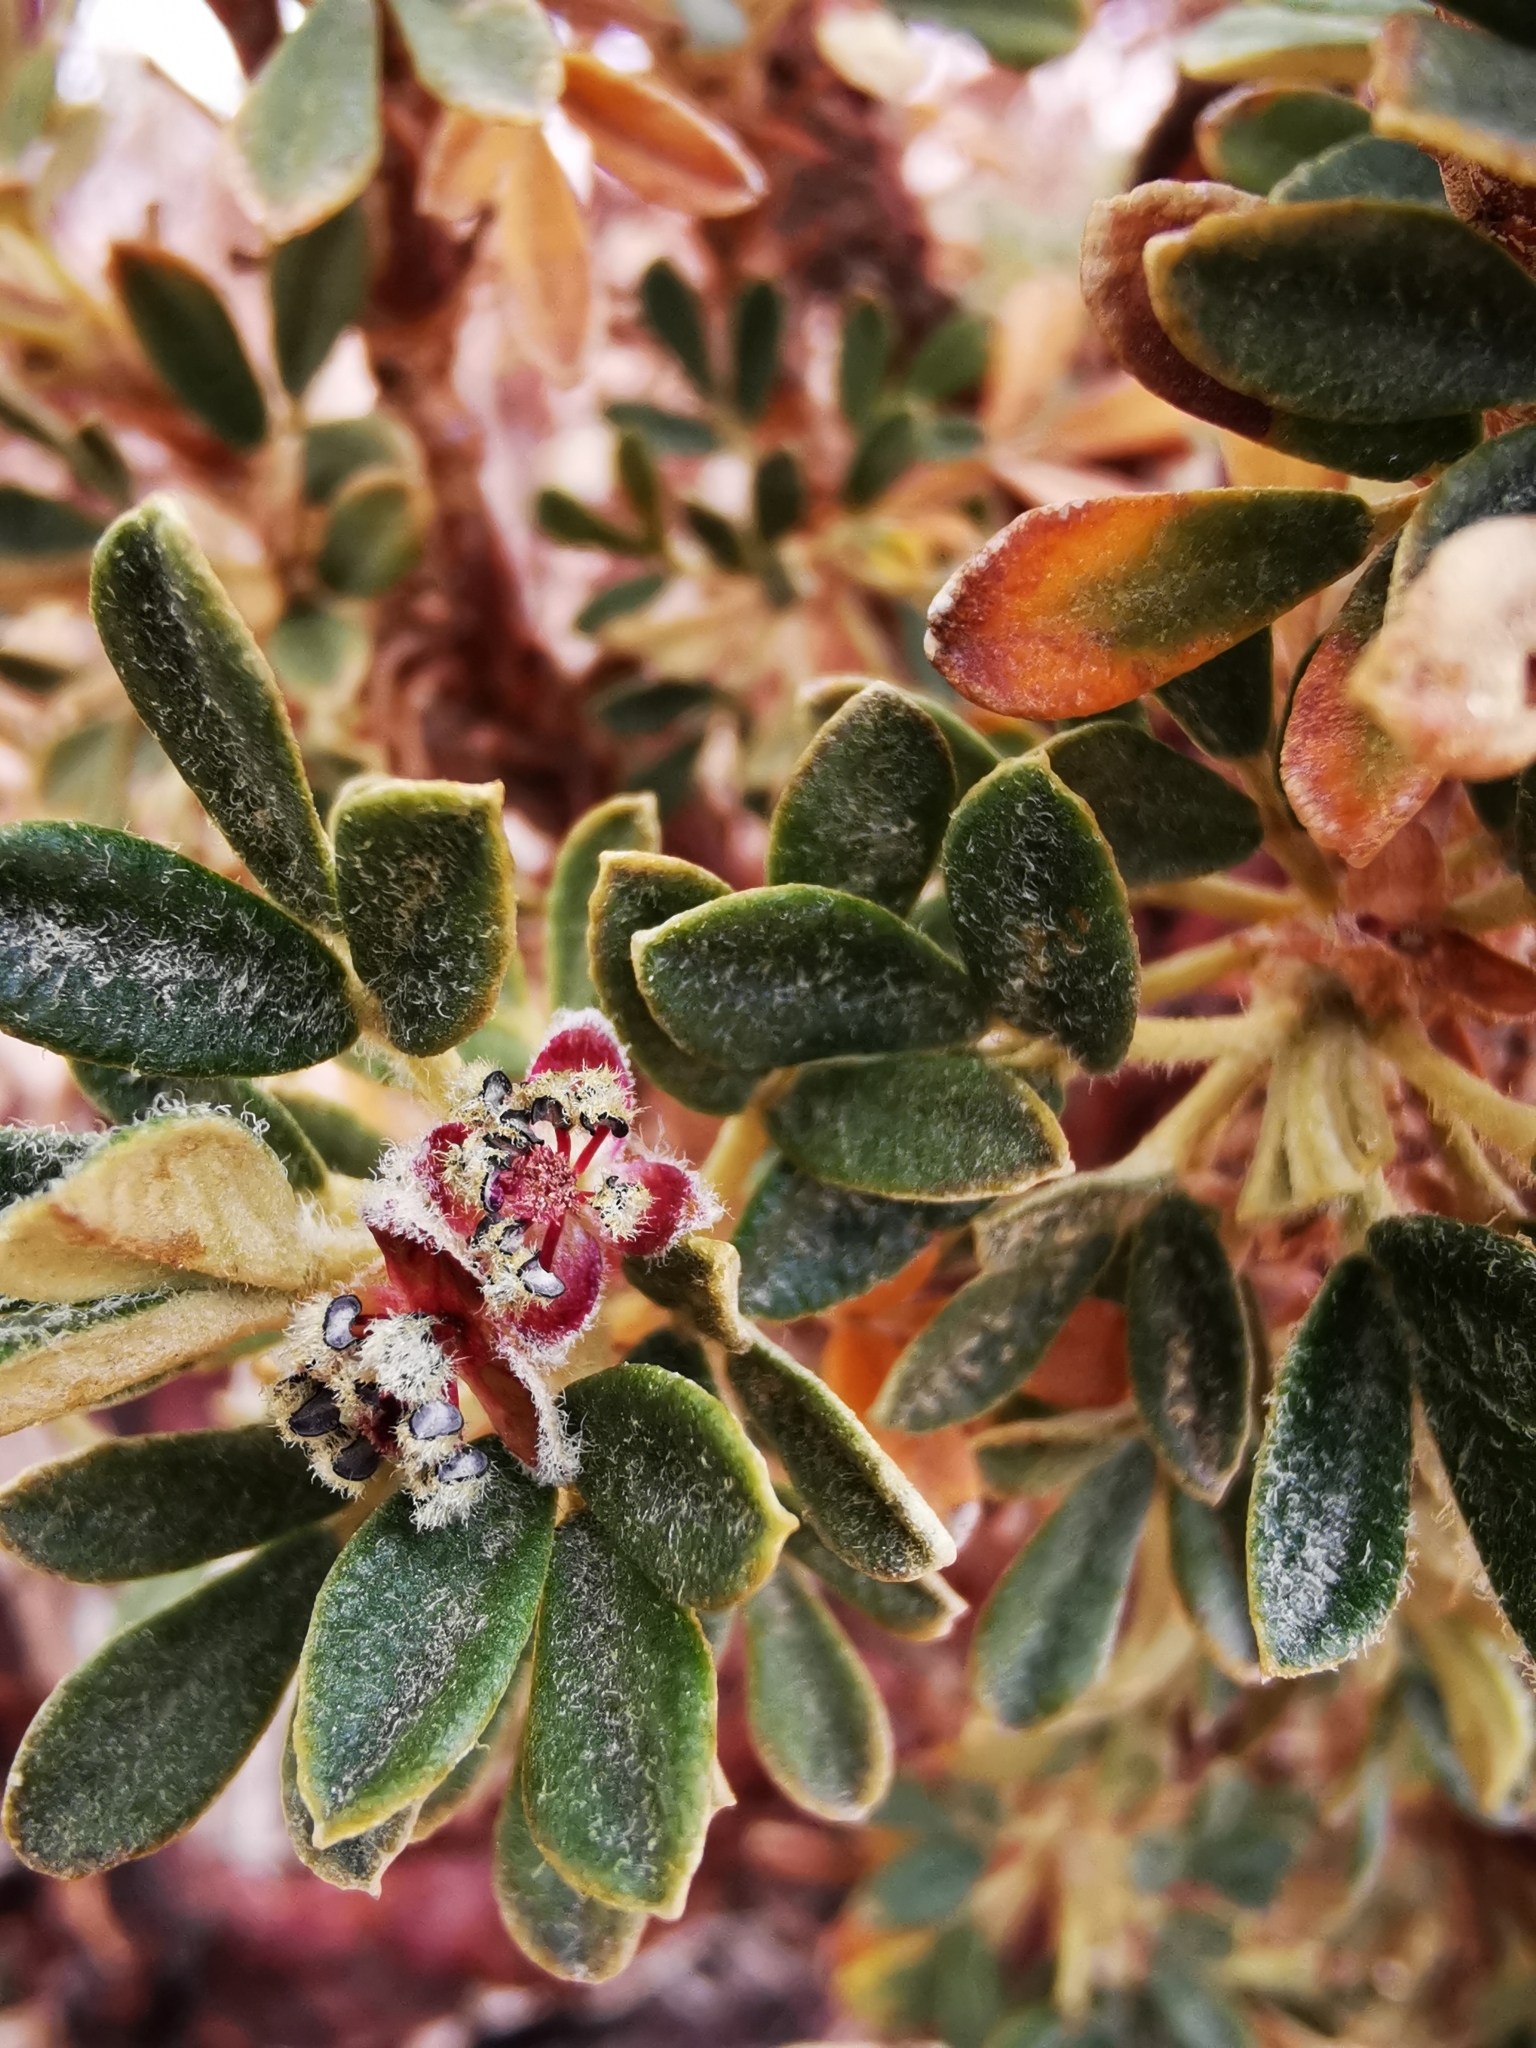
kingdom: Plantae
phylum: Tracheophyta
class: Magnoliopsida
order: Rosales
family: Rosaceae
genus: Polylepis
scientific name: Polylepis tarapacana
